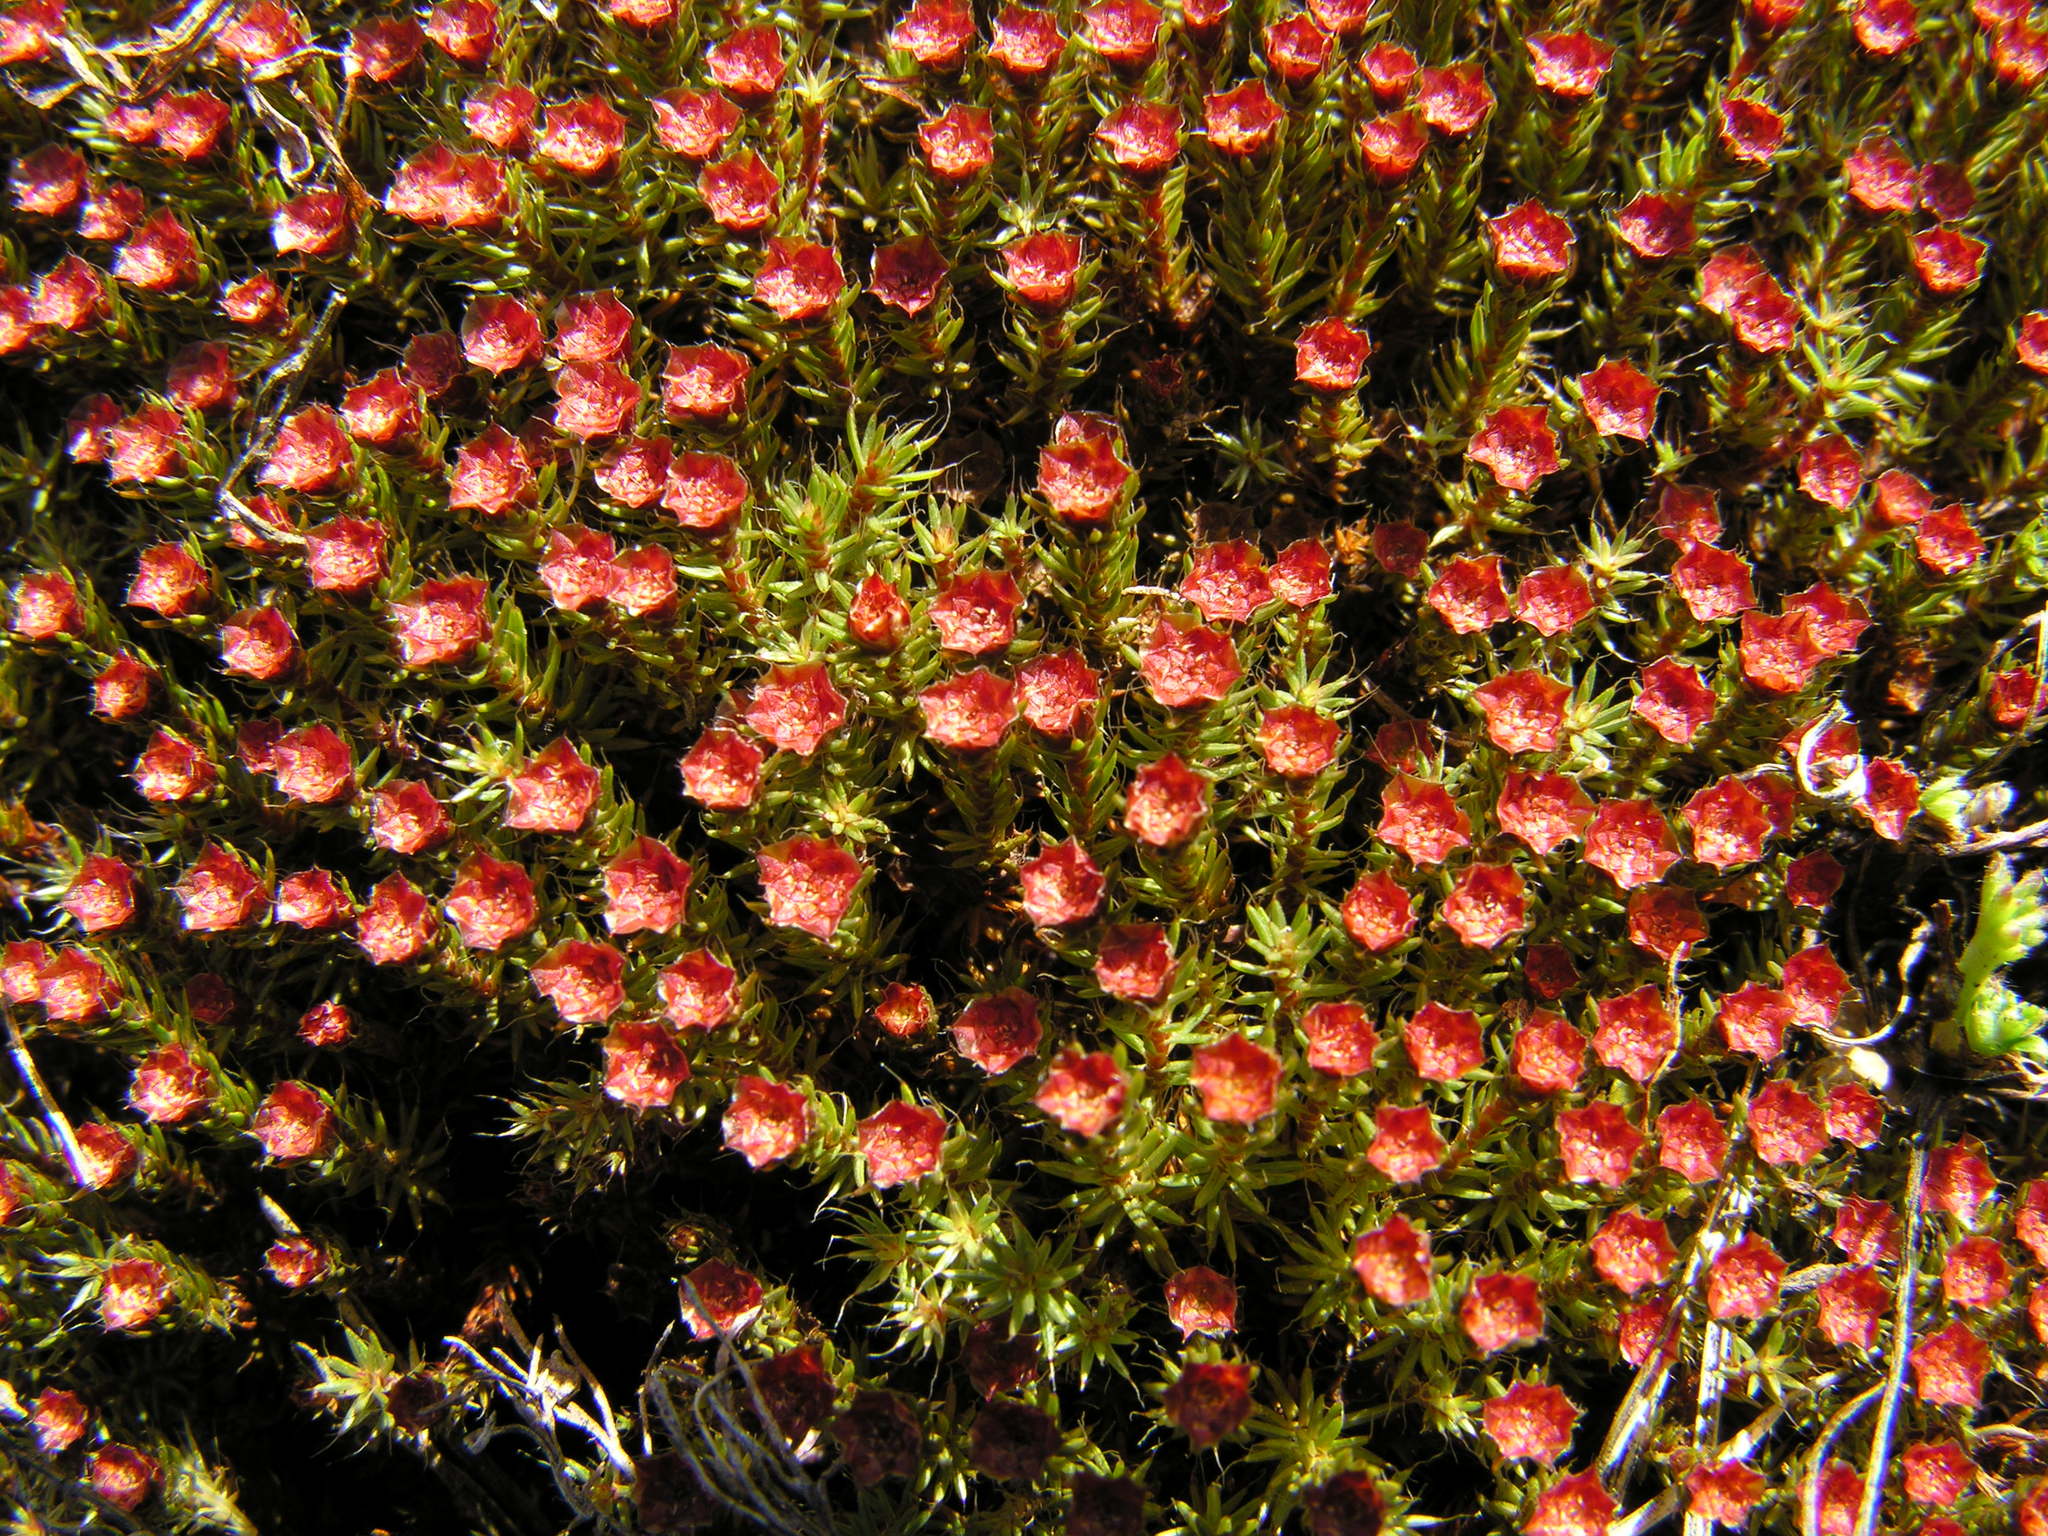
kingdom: Plantae
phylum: Bryophyta
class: Polytrichopsida
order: Polytrichales
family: Polytrichaceae
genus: Polytrichum
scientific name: Polytrichum piliferum
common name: Bristly haircap
